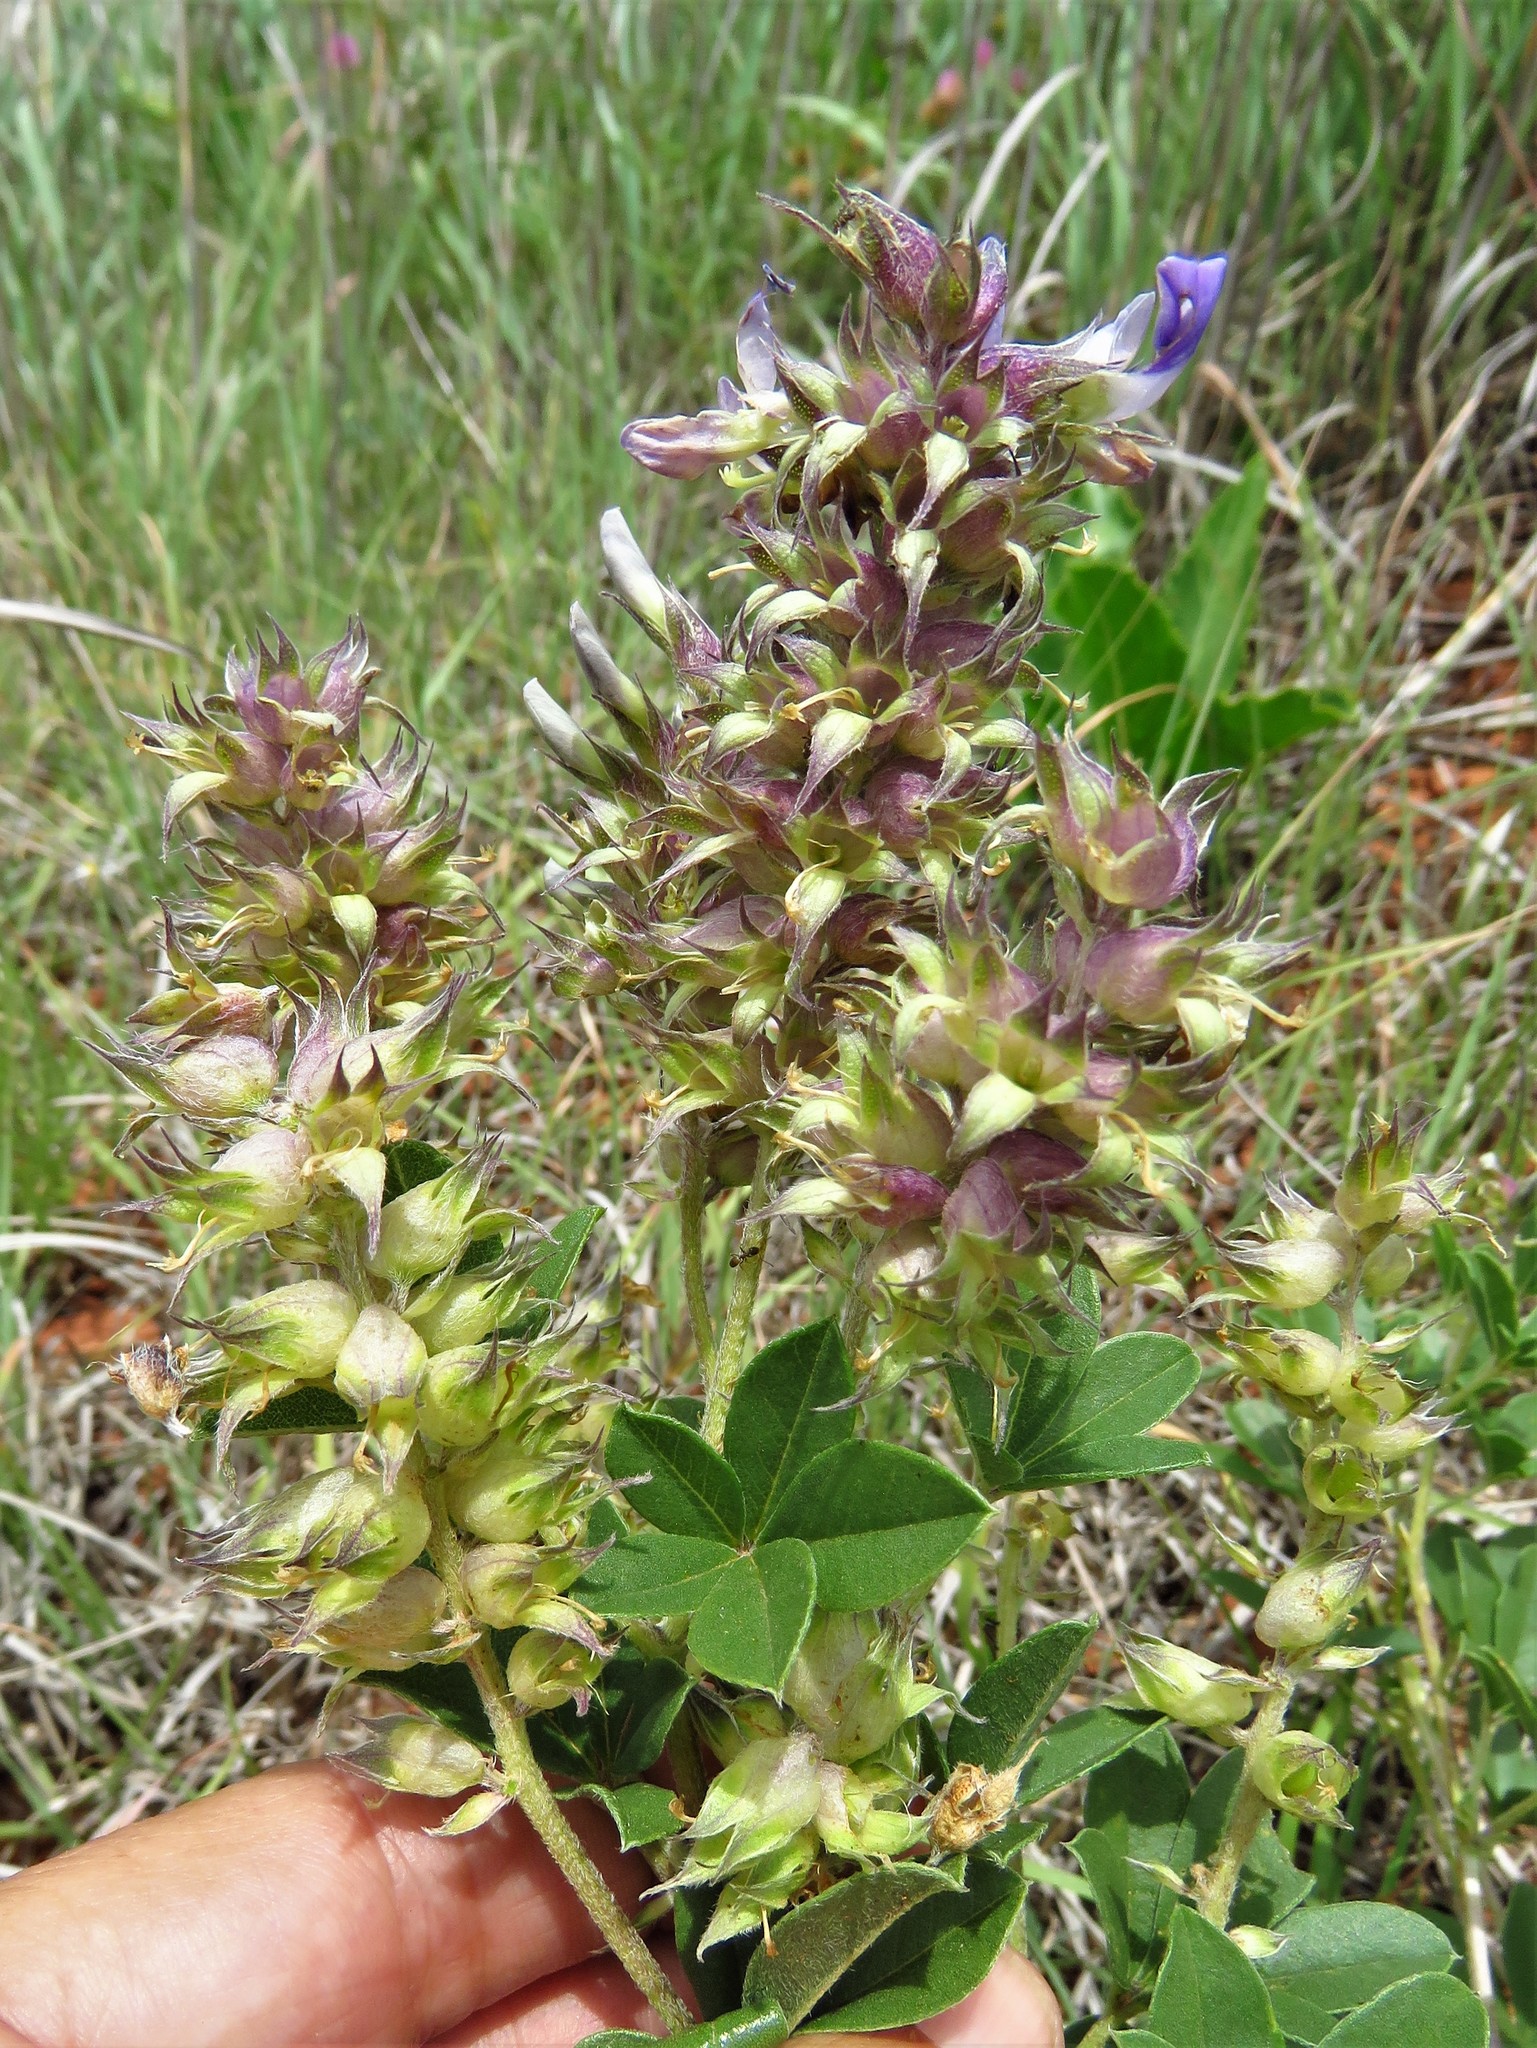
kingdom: Plantae
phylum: Tracheophyta
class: Magnoliopsida
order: Fabales
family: Fabaceae
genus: Pediomelum
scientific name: Pediomelum cuspidatum
